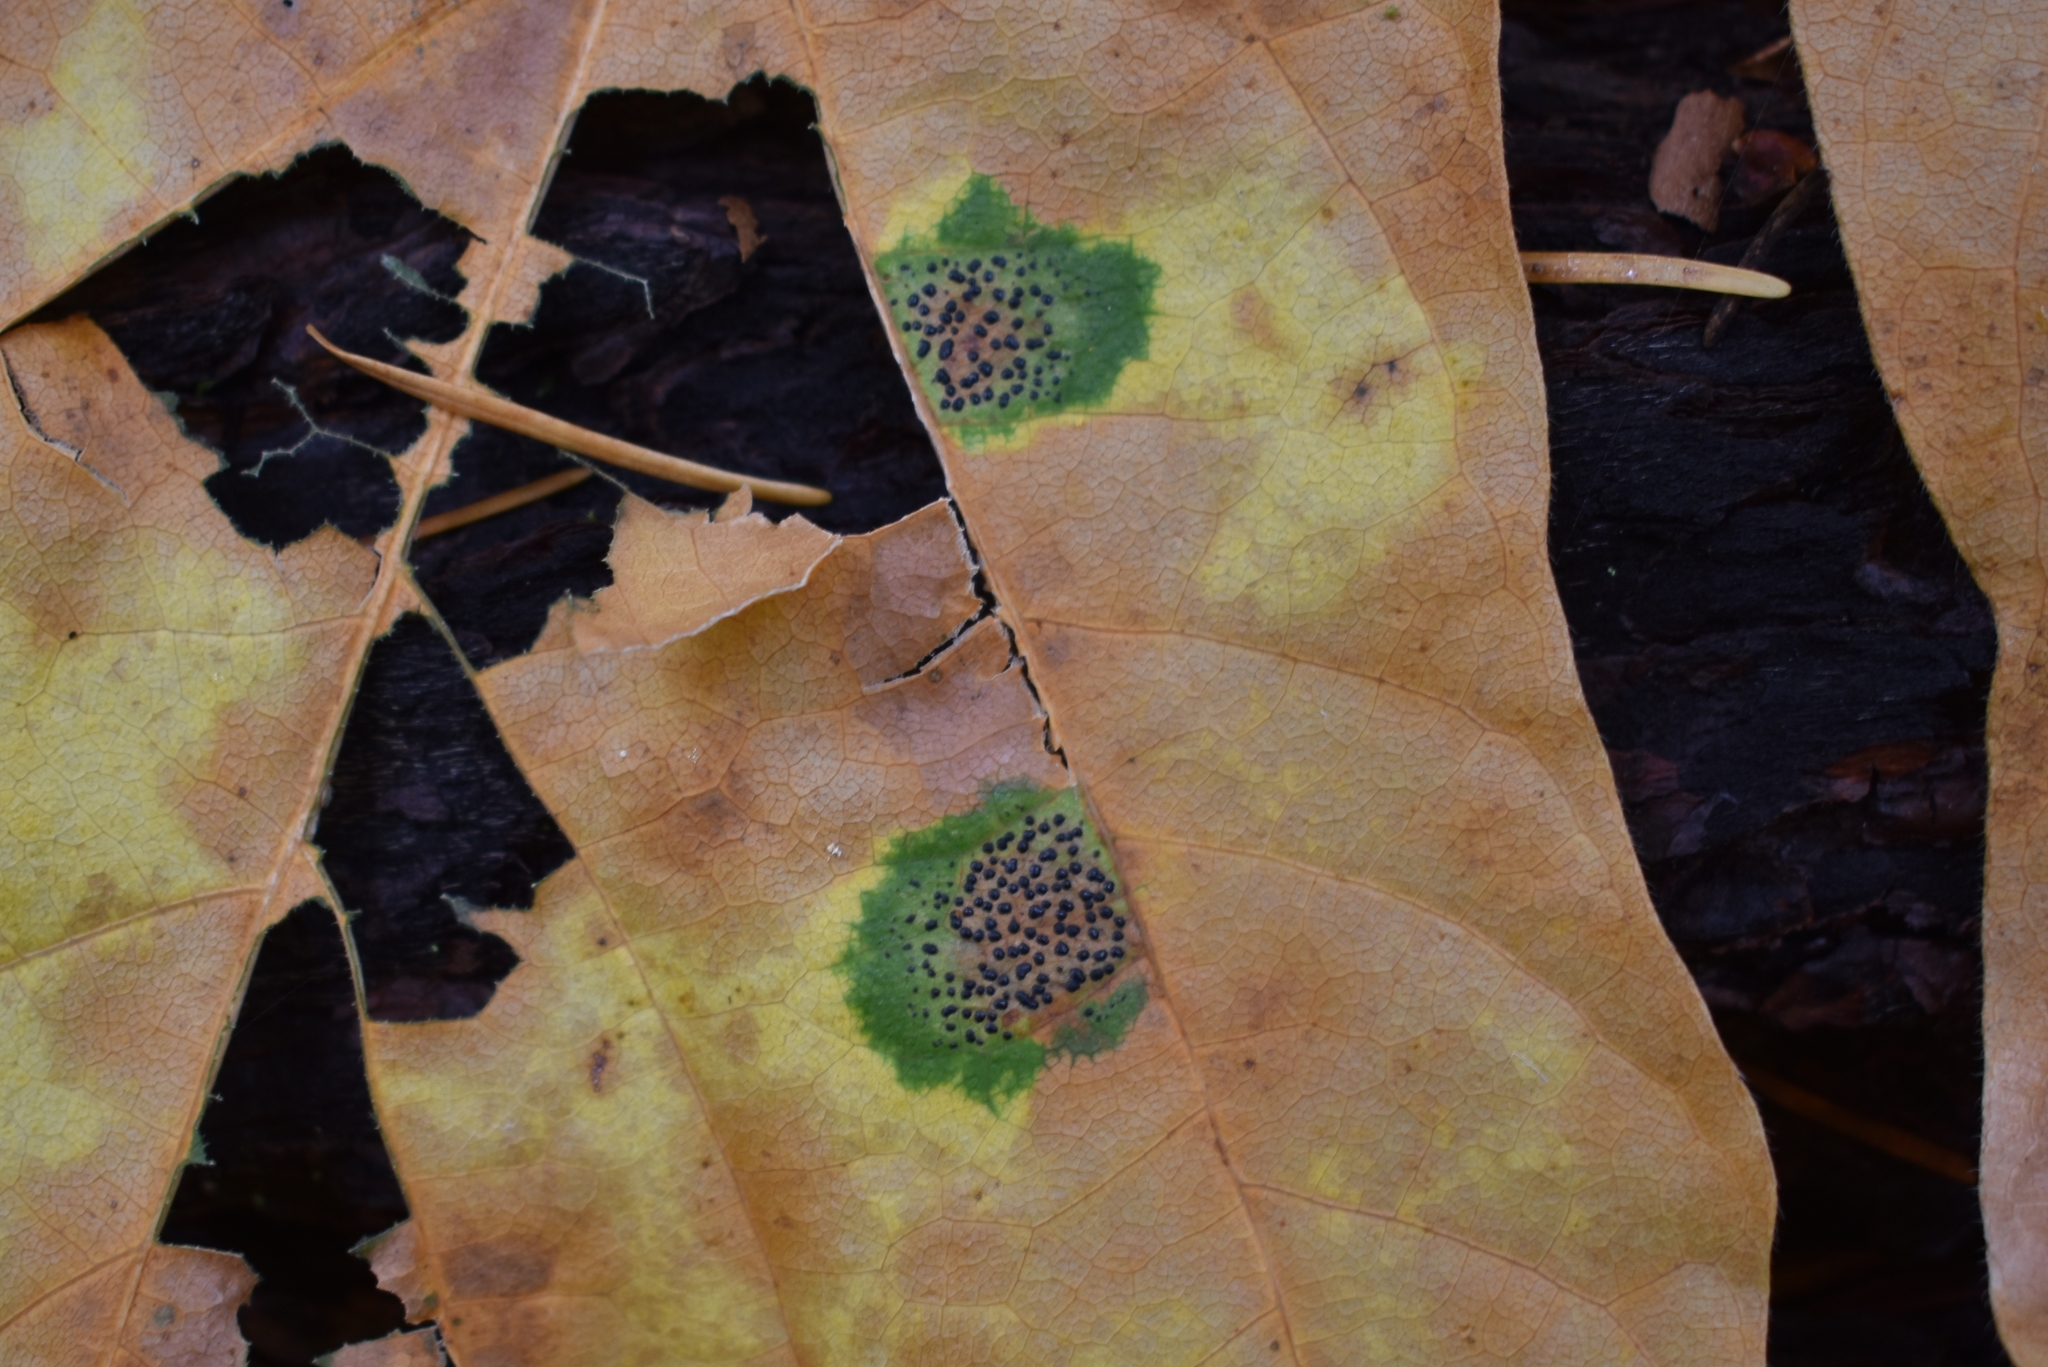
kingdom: Fungi
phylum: Ascomycota
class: Leotiomycetes
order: Rhytismatales
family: Rhytismataceae
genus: Rhytisma
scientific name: Rhytisma punctatum
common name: Speckled tar spot
